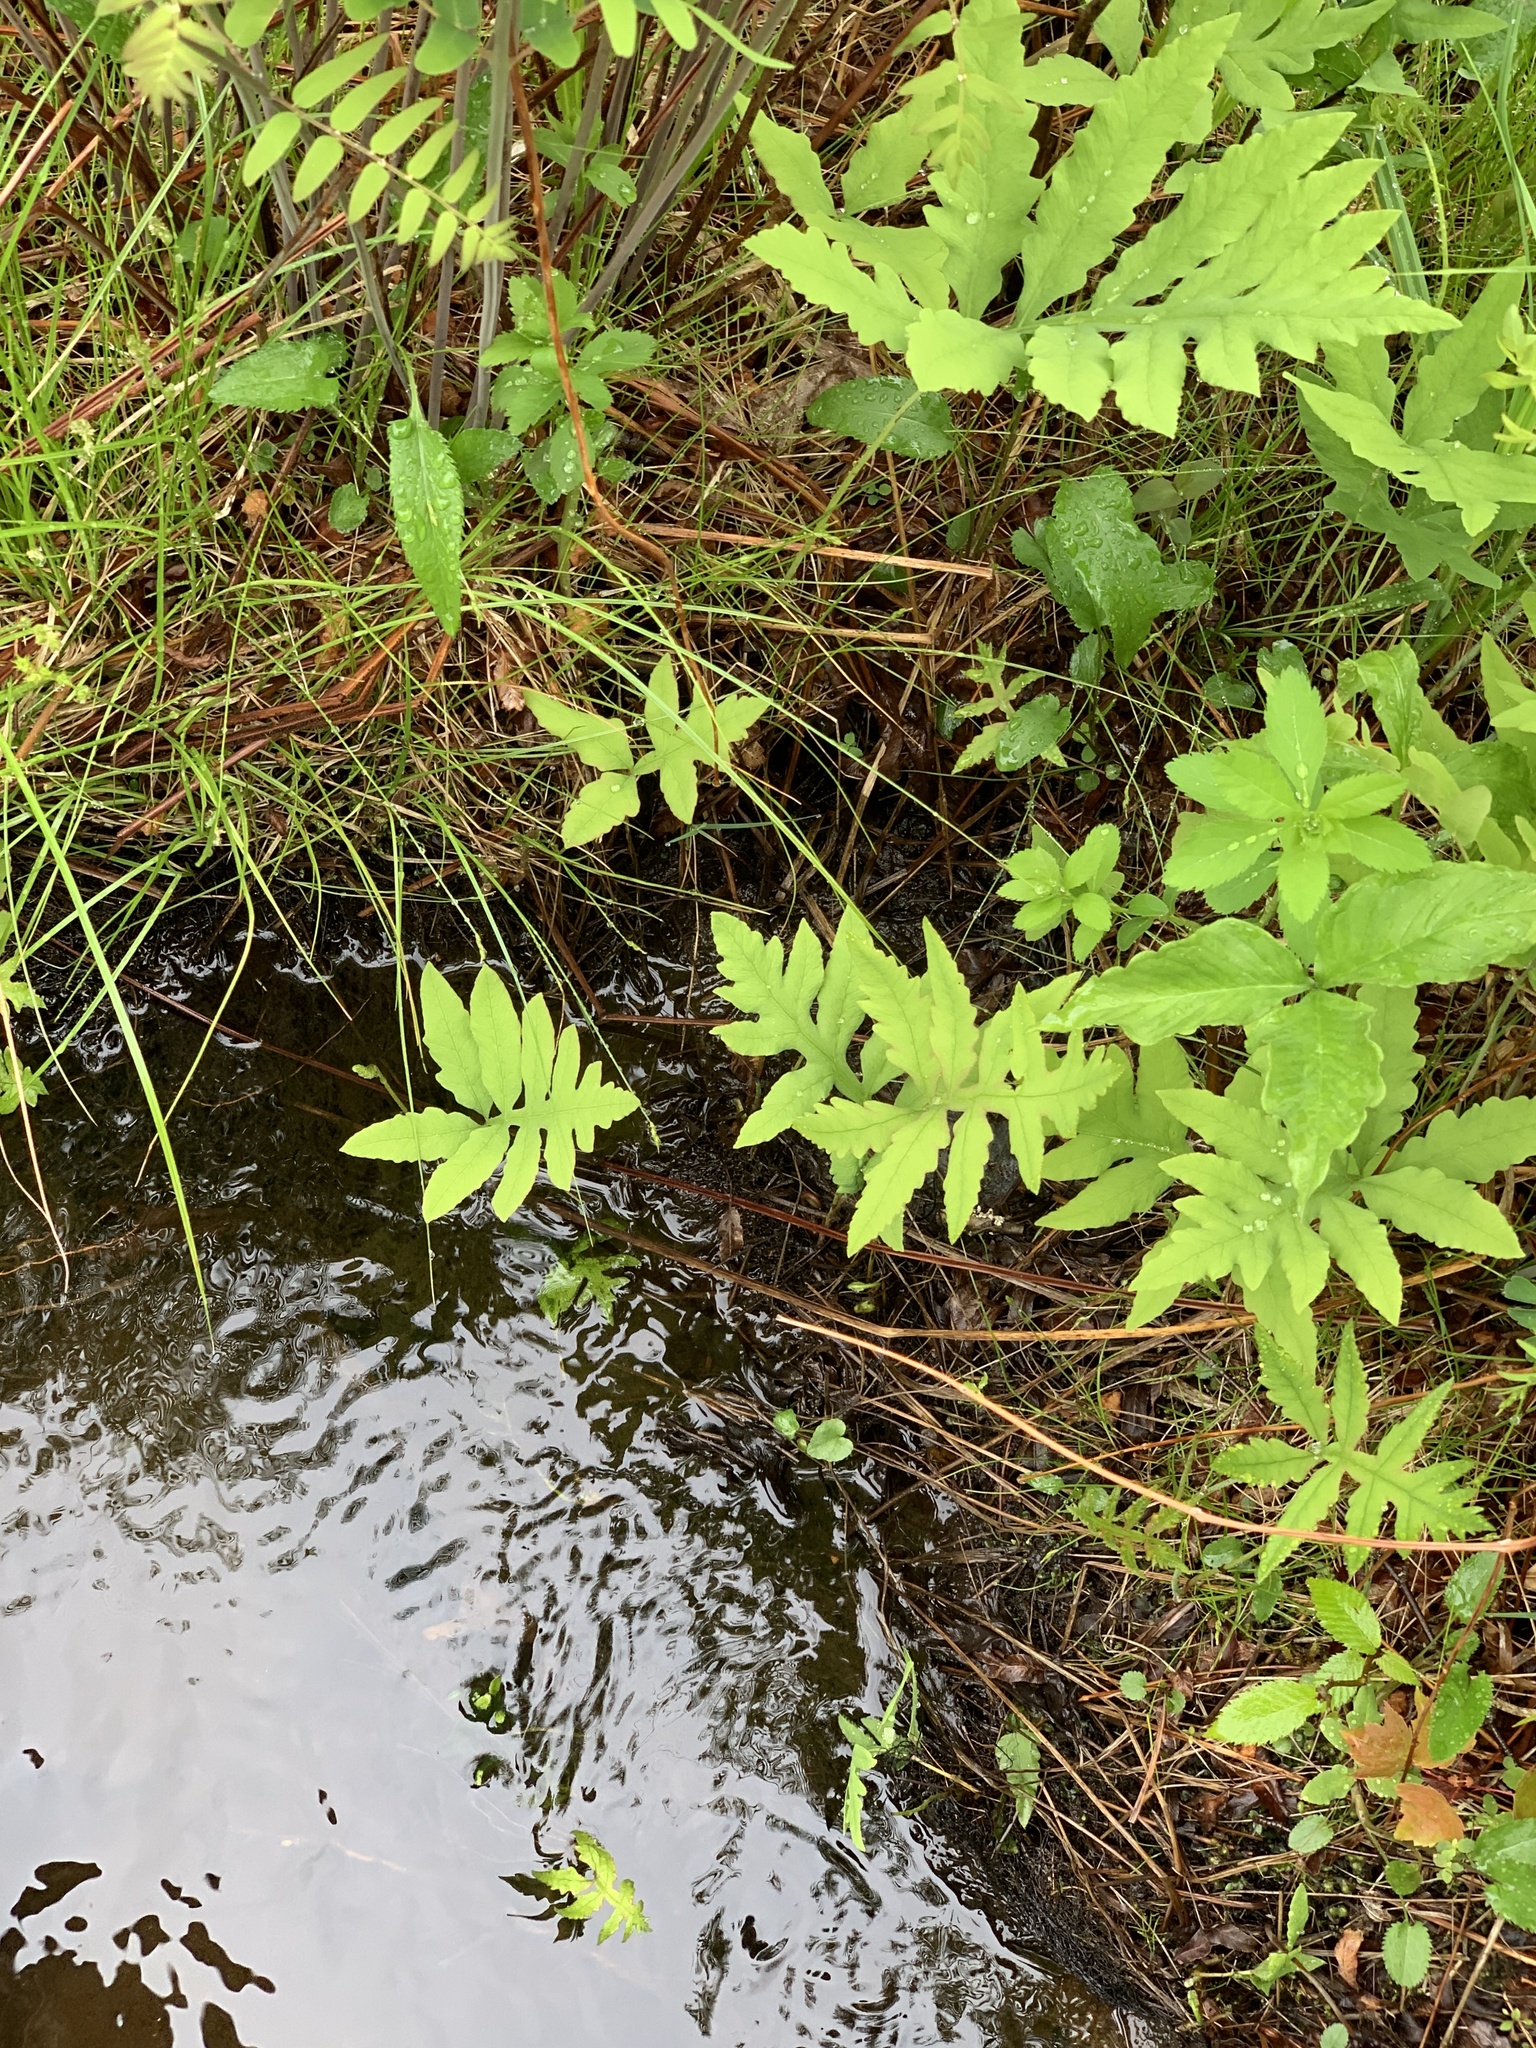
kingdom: Plantae
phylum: Tracheophyta
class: Polypodiopsida
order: Polypodiales
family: Onocleaceae
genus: Onoclea
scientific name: Onoclea sensibilis
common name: Sensitive fern
